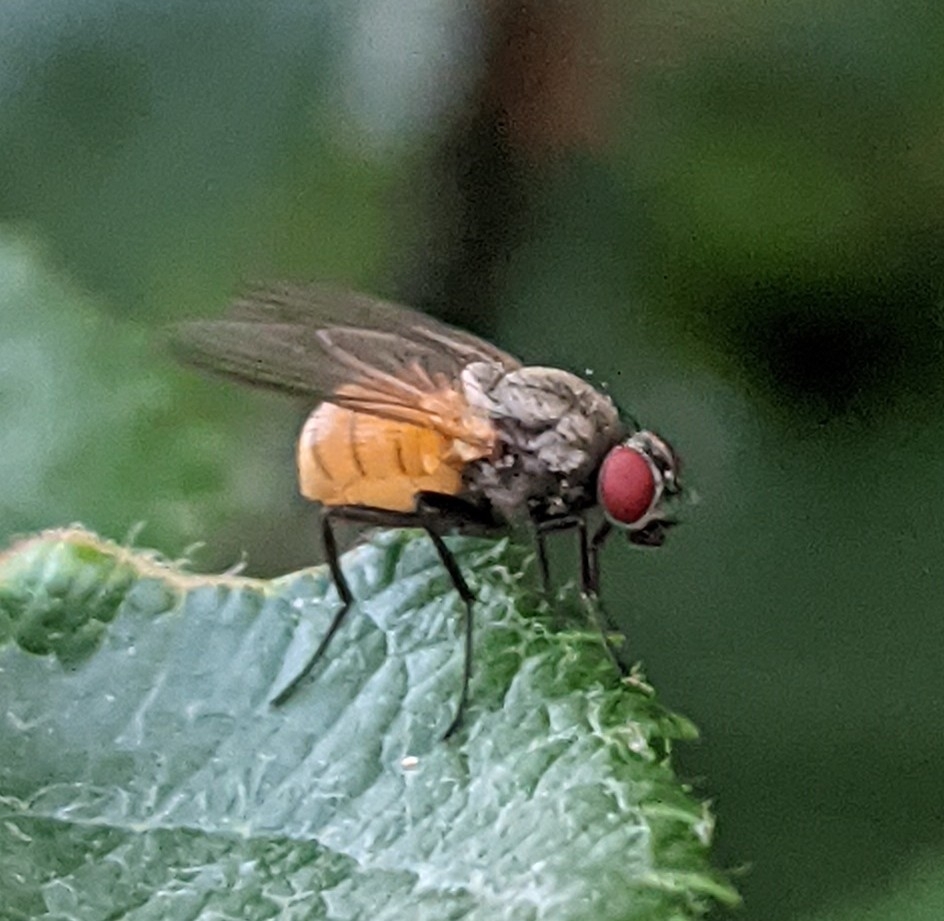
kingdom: Animalia
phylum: Arthropoda
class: Insecta
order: Diptera
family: Muscidae
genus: Thricops
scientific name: Thricops semicinereus
